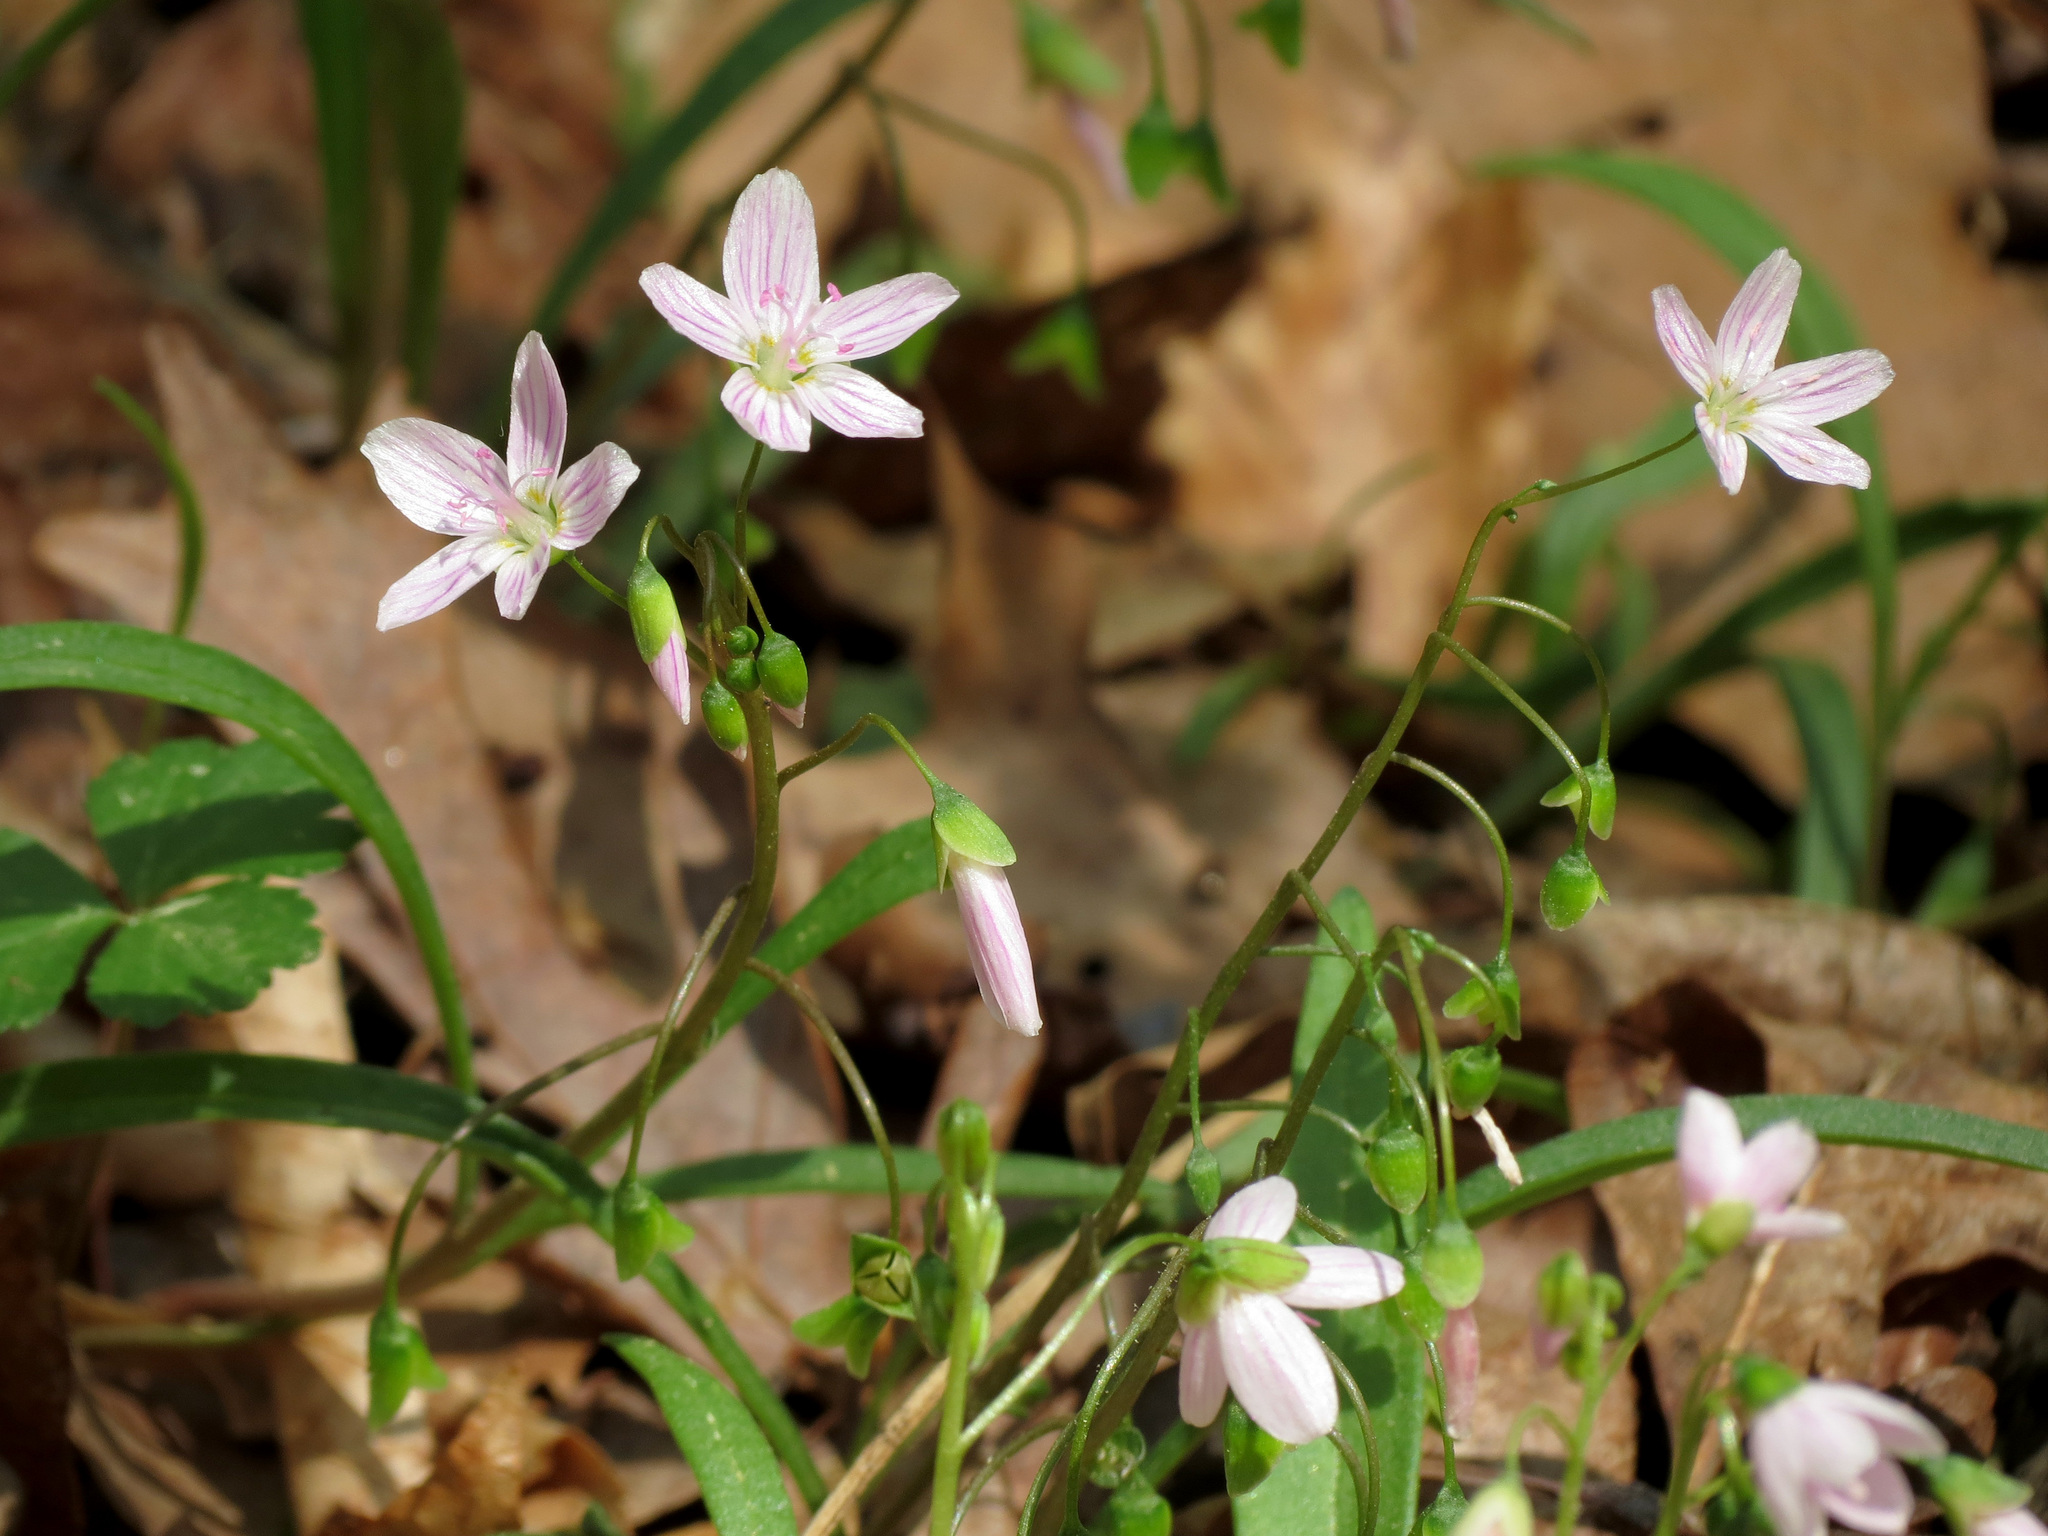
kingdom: Plantae
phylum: Tracheophyta
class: Magnoliopsida
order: Caryophyllales
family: Montiaceae
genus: Claytonia
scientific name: Claytonia virginica
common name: Virginia springbeauty
